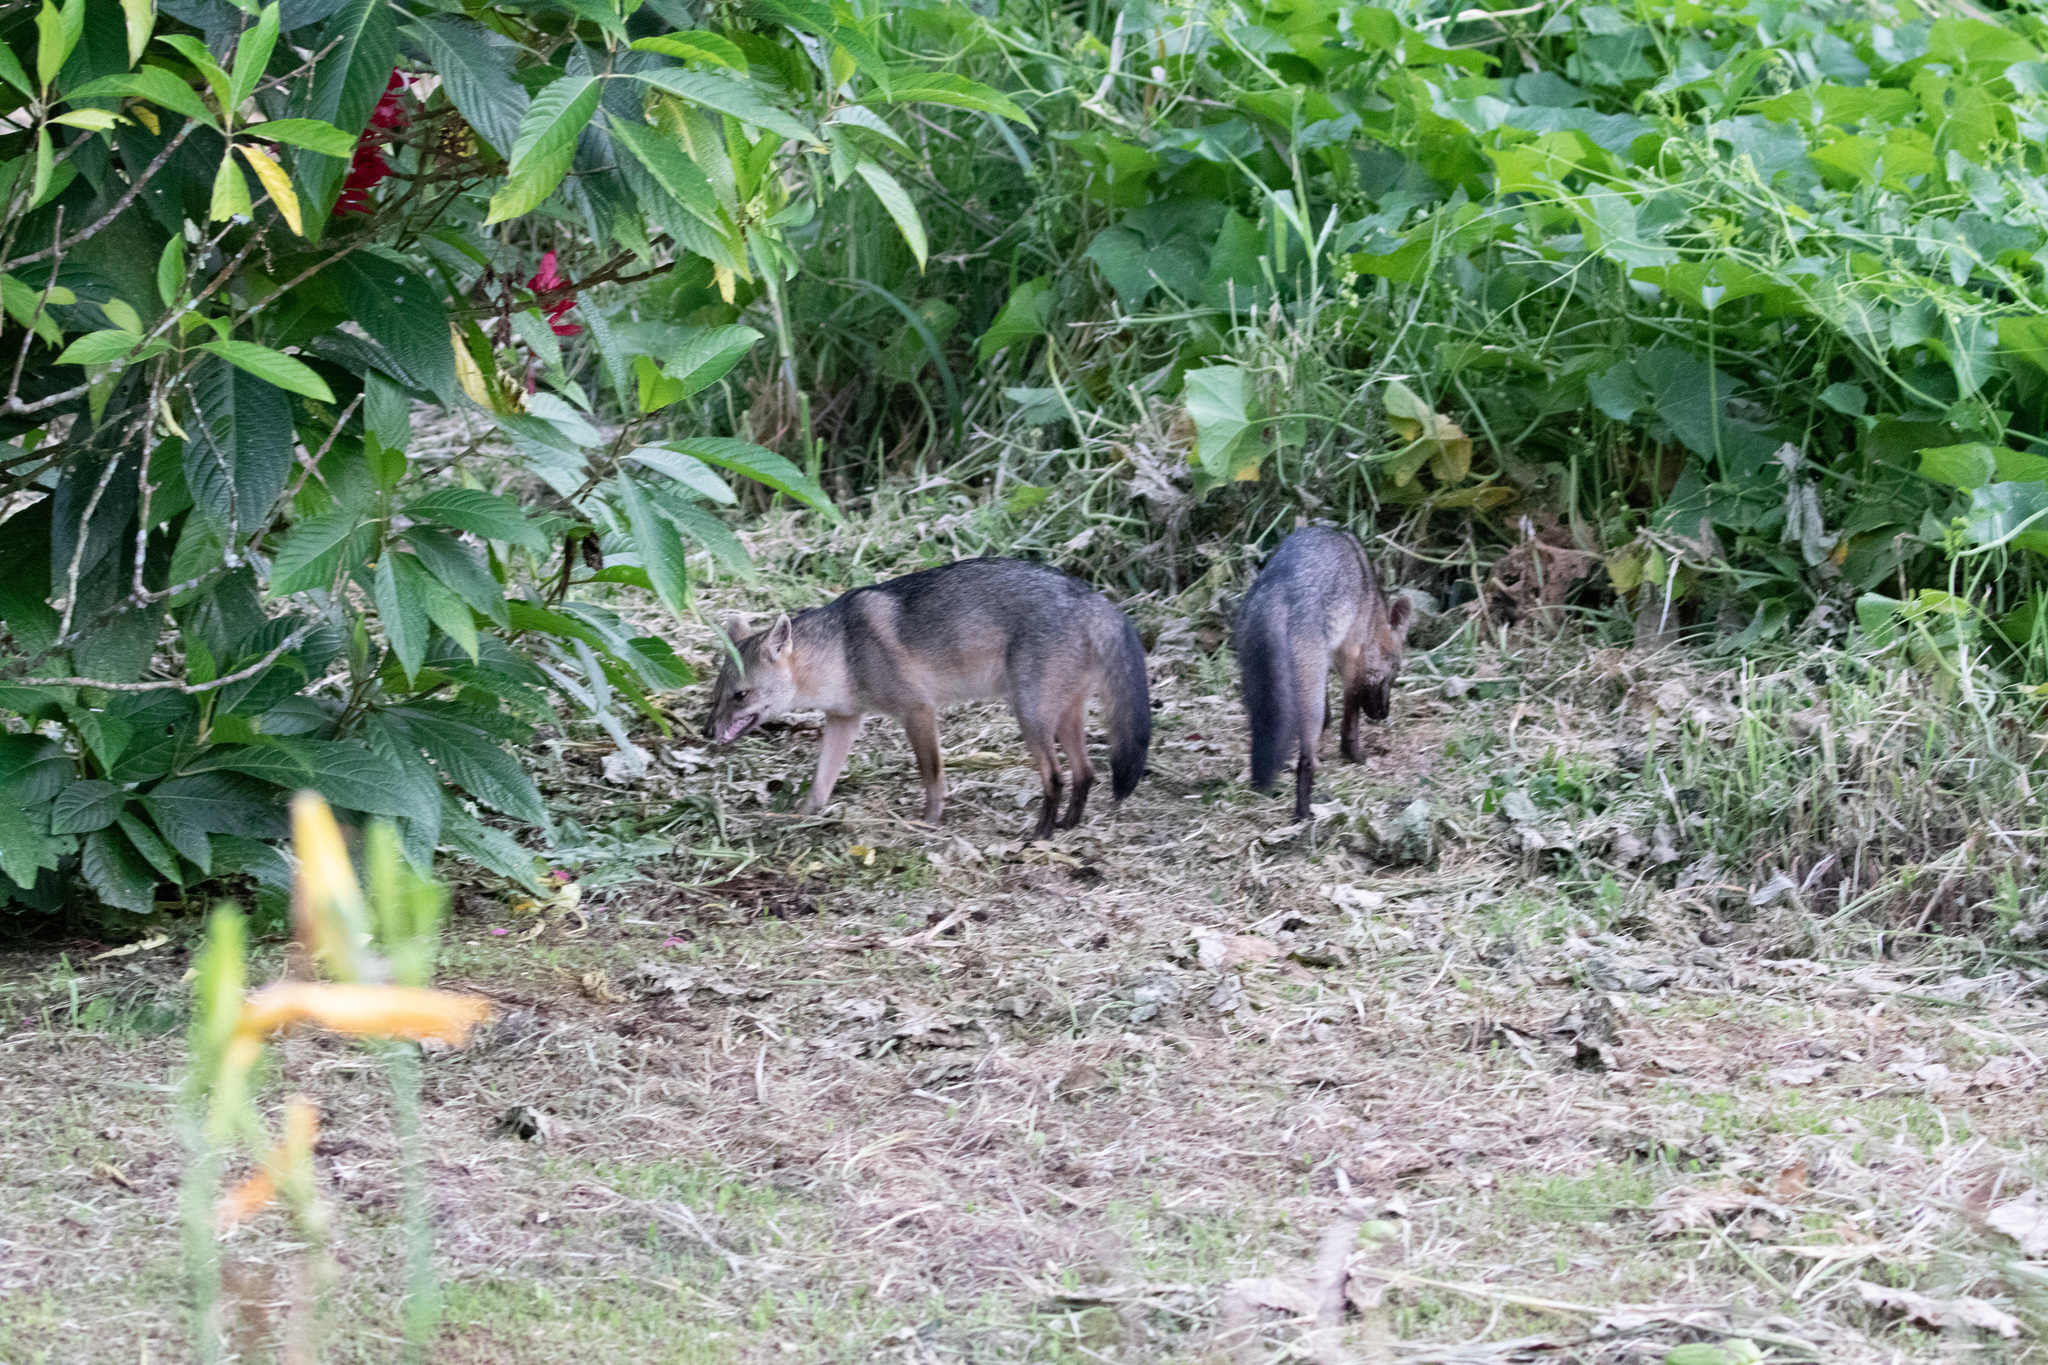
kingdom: Animalia
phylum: Chordata
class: Mammalia
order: Carnivora
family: Canidae
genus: Cerdocyon
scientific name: Cerdocyon thous
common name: Crab-eating fox
